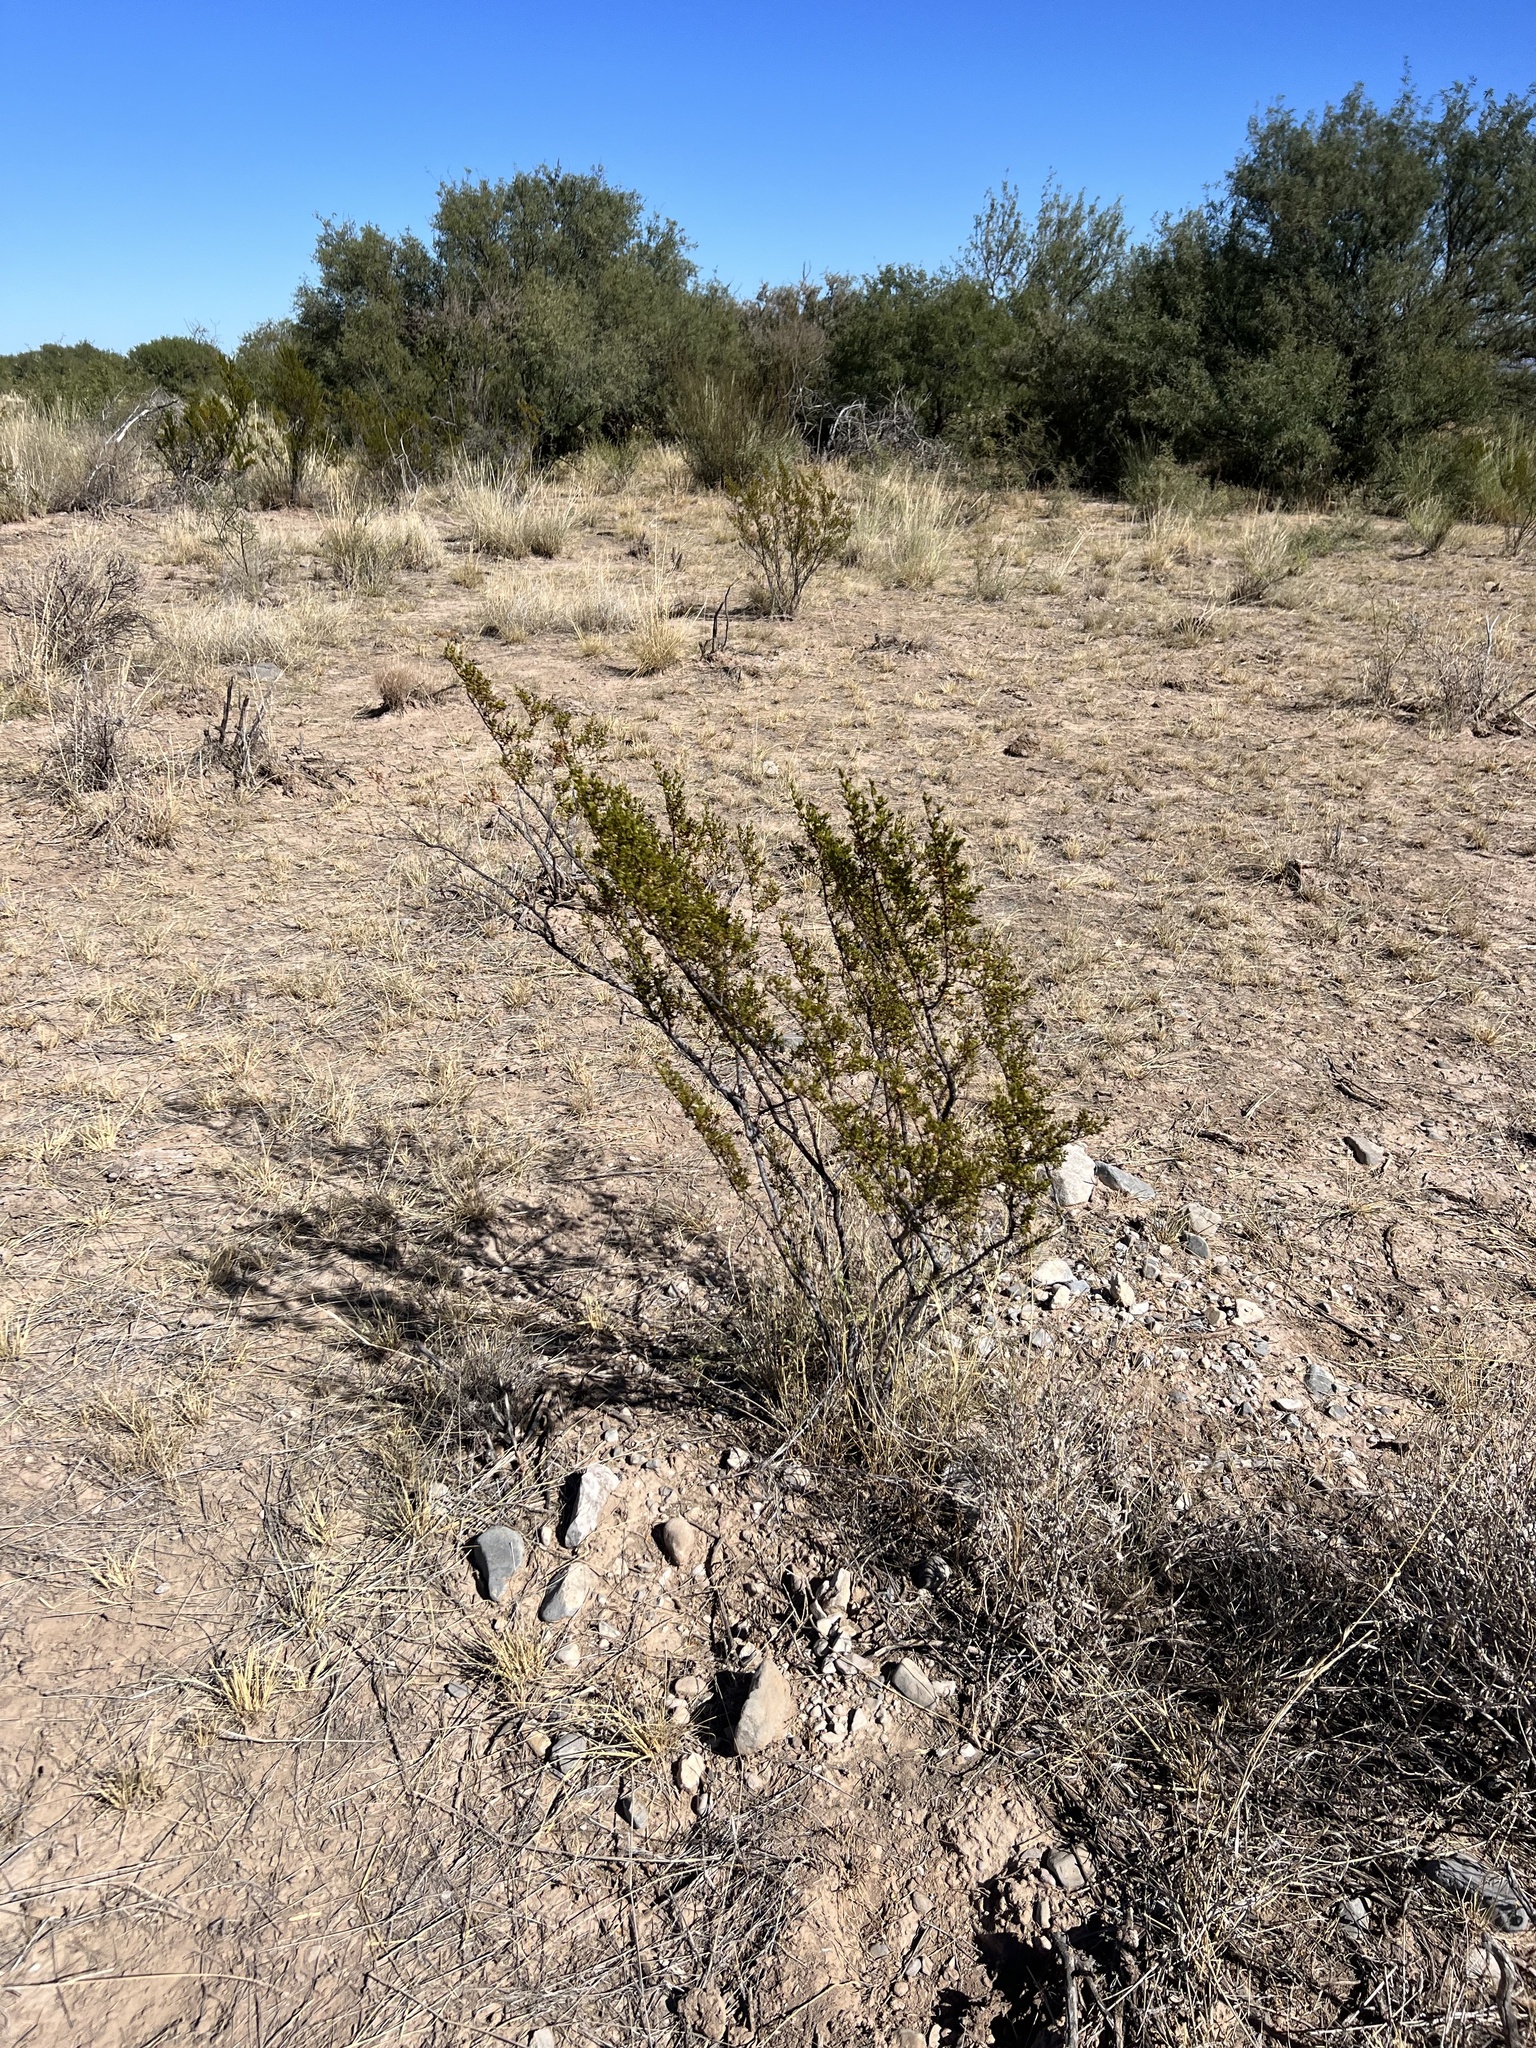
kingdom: Plantae
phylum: Tracheophyta
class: Magnoliopsida
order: Zygophyllales
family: Zygophyllaceae
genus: Larrea
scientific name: Larrea tridentata
